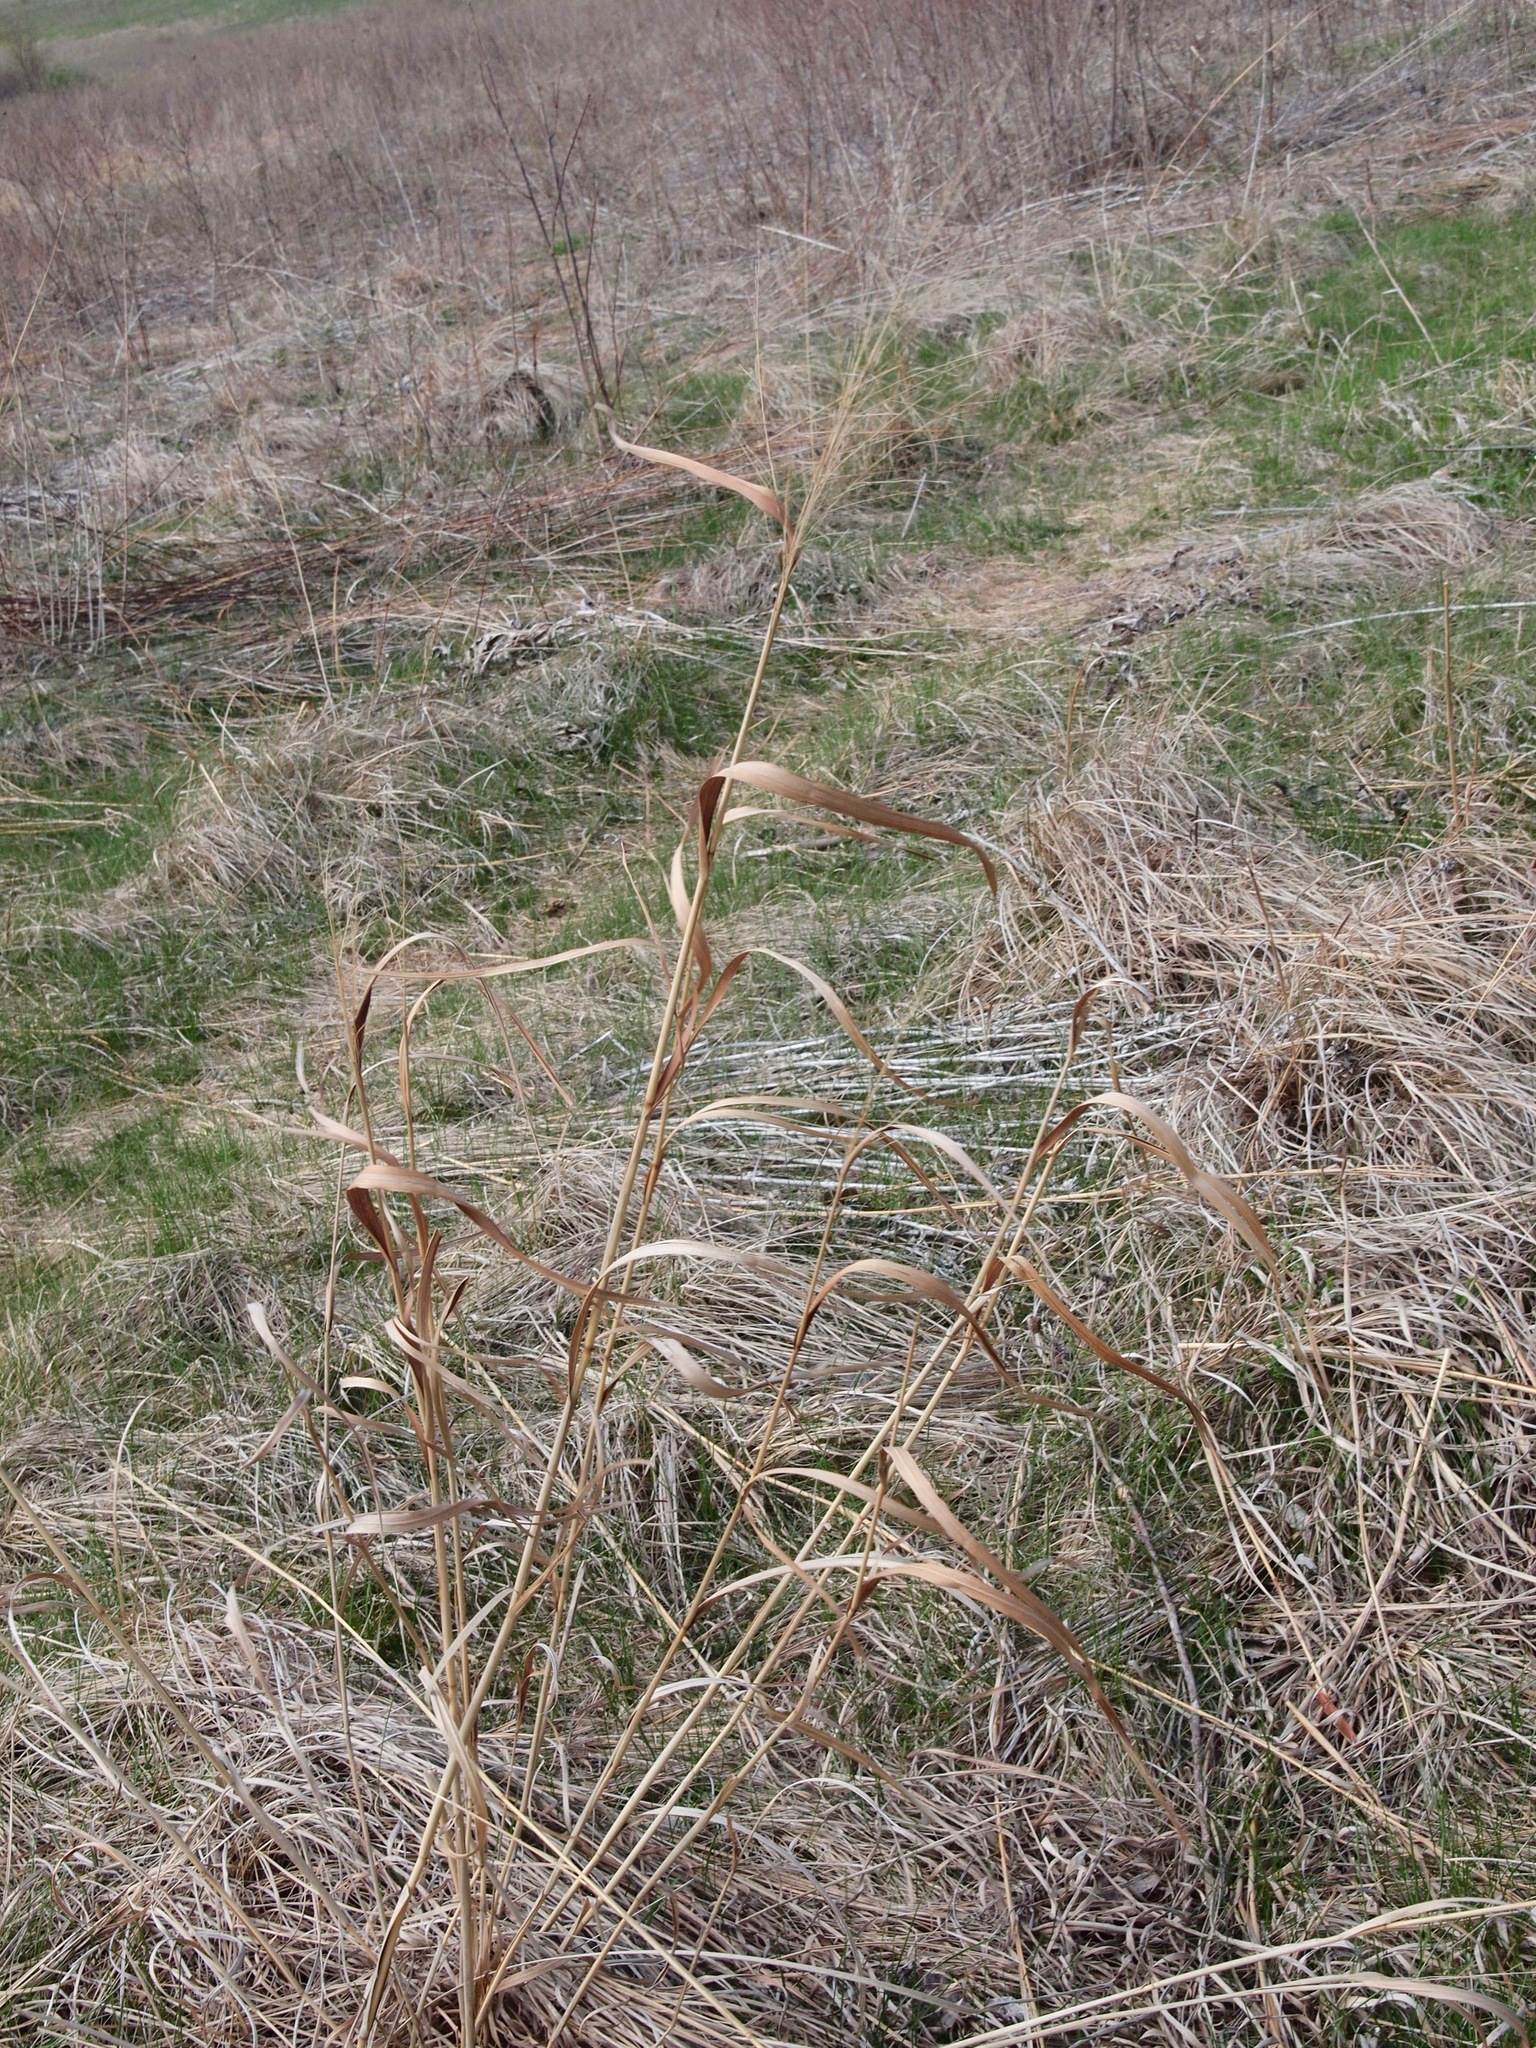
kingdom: Plantae
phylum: Tracheophyta
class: Liliopsida
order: Poales
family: Poaceae
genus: Panicum
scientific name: Panicum virgatum
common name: Switchgrass
